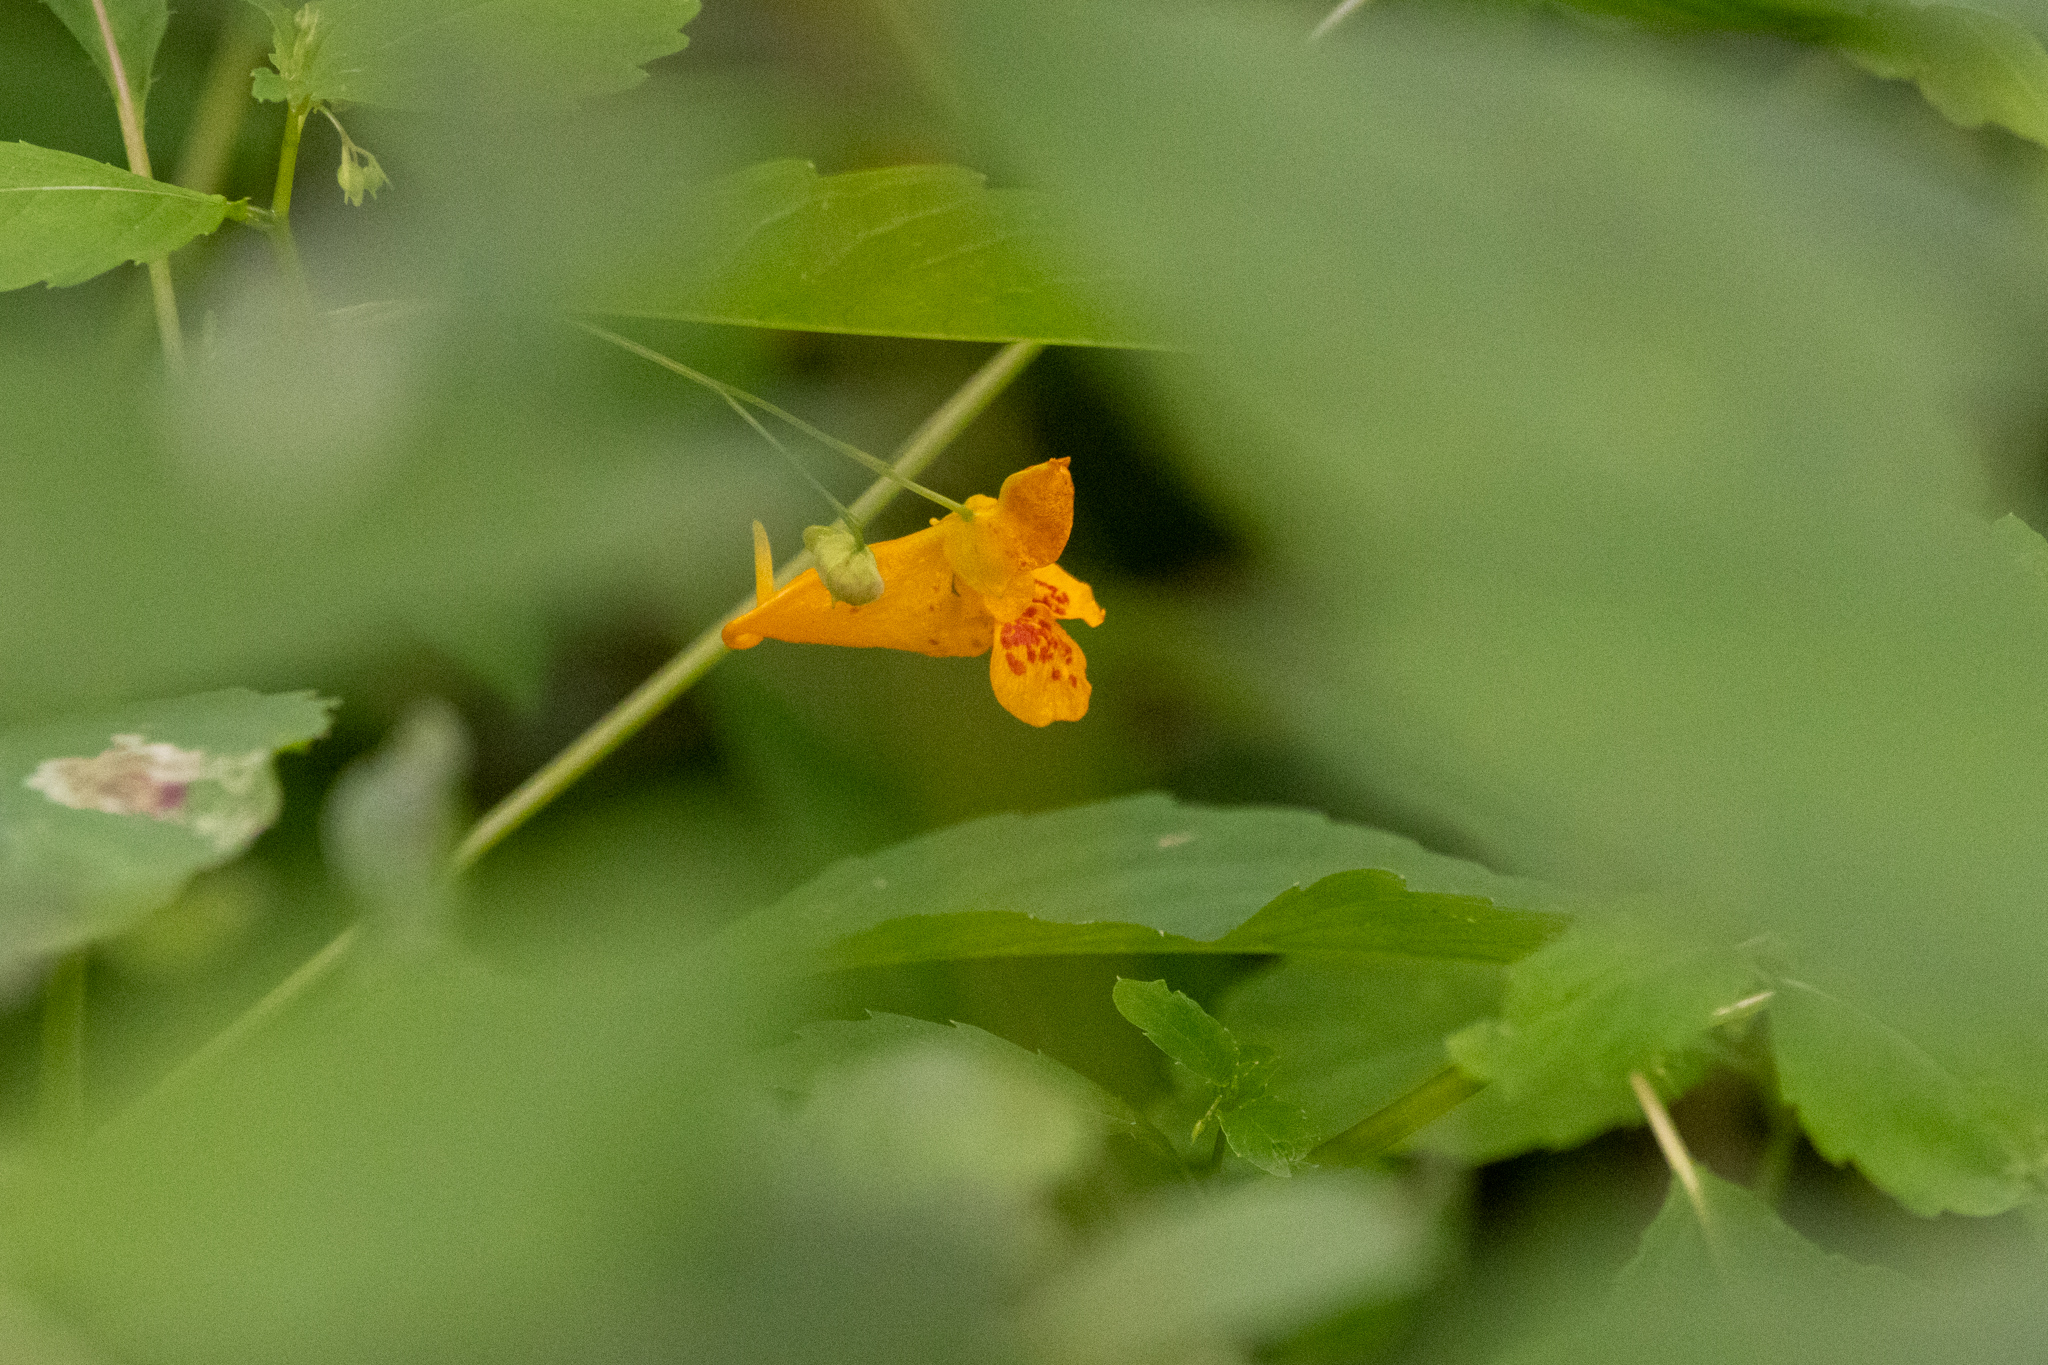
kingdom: Plantae
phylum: Tracheophyta
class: Magnoliopsida
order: Ericales
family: Balsaminaceae
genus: Impatiens
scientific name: Impatiens capensis
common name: Orange balsam
